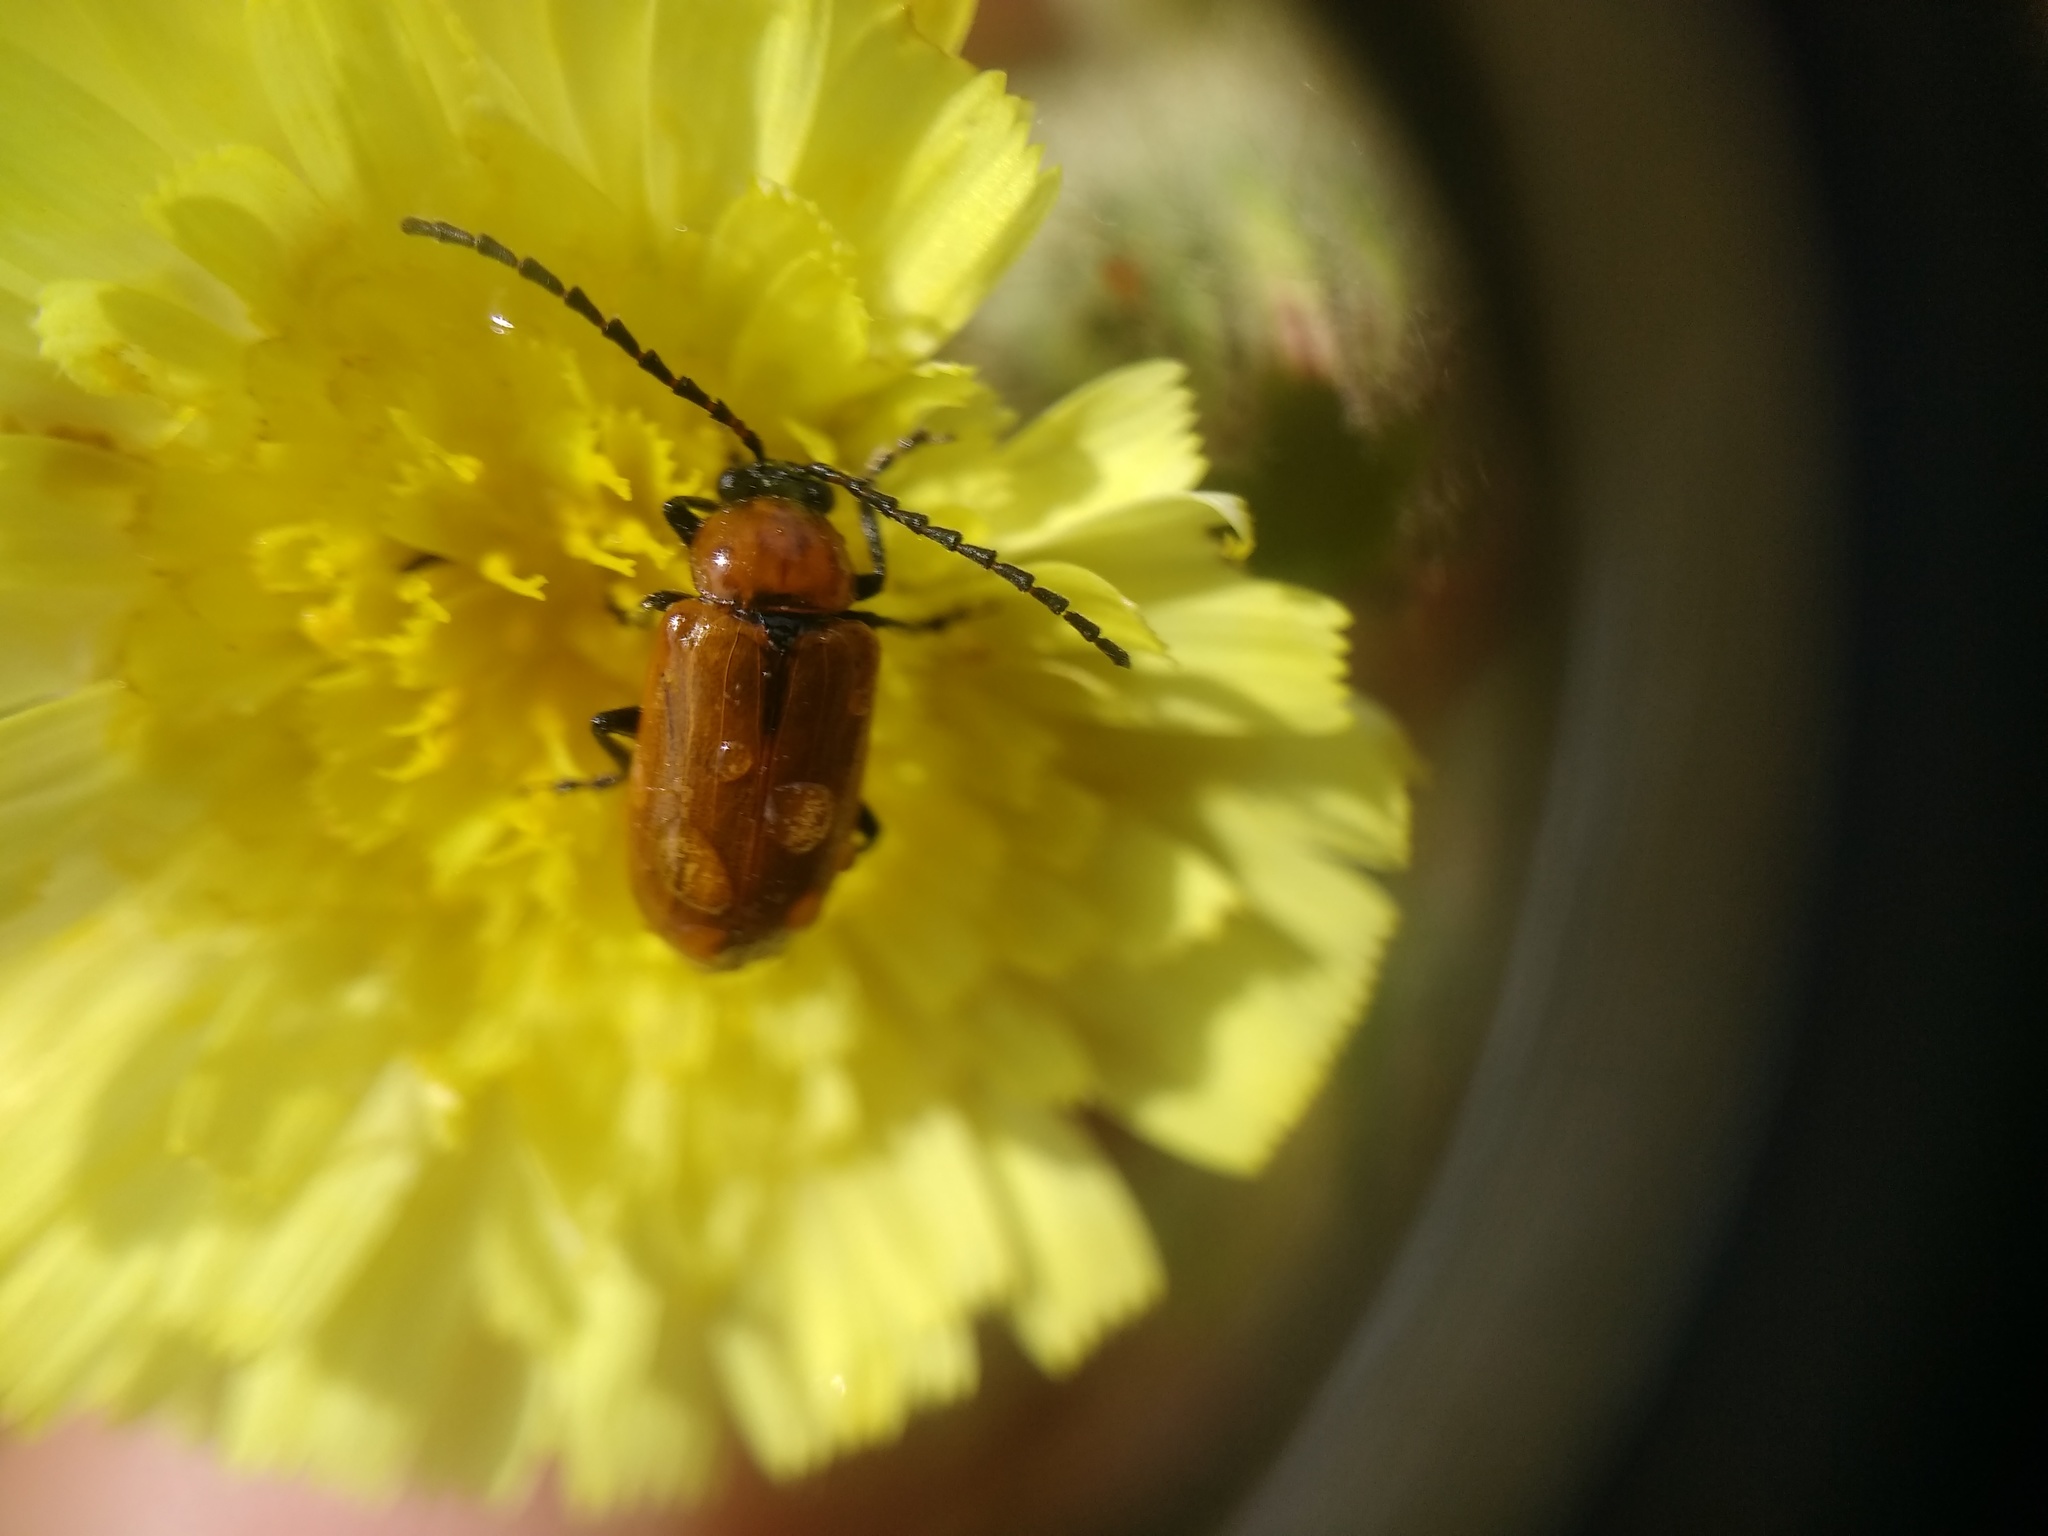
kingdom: Animalia
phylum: Arthropoda
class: Insecta
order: Coleoptera
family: Chrysomelidae
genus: Exosoma
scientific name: Exosoma lusitanicum
